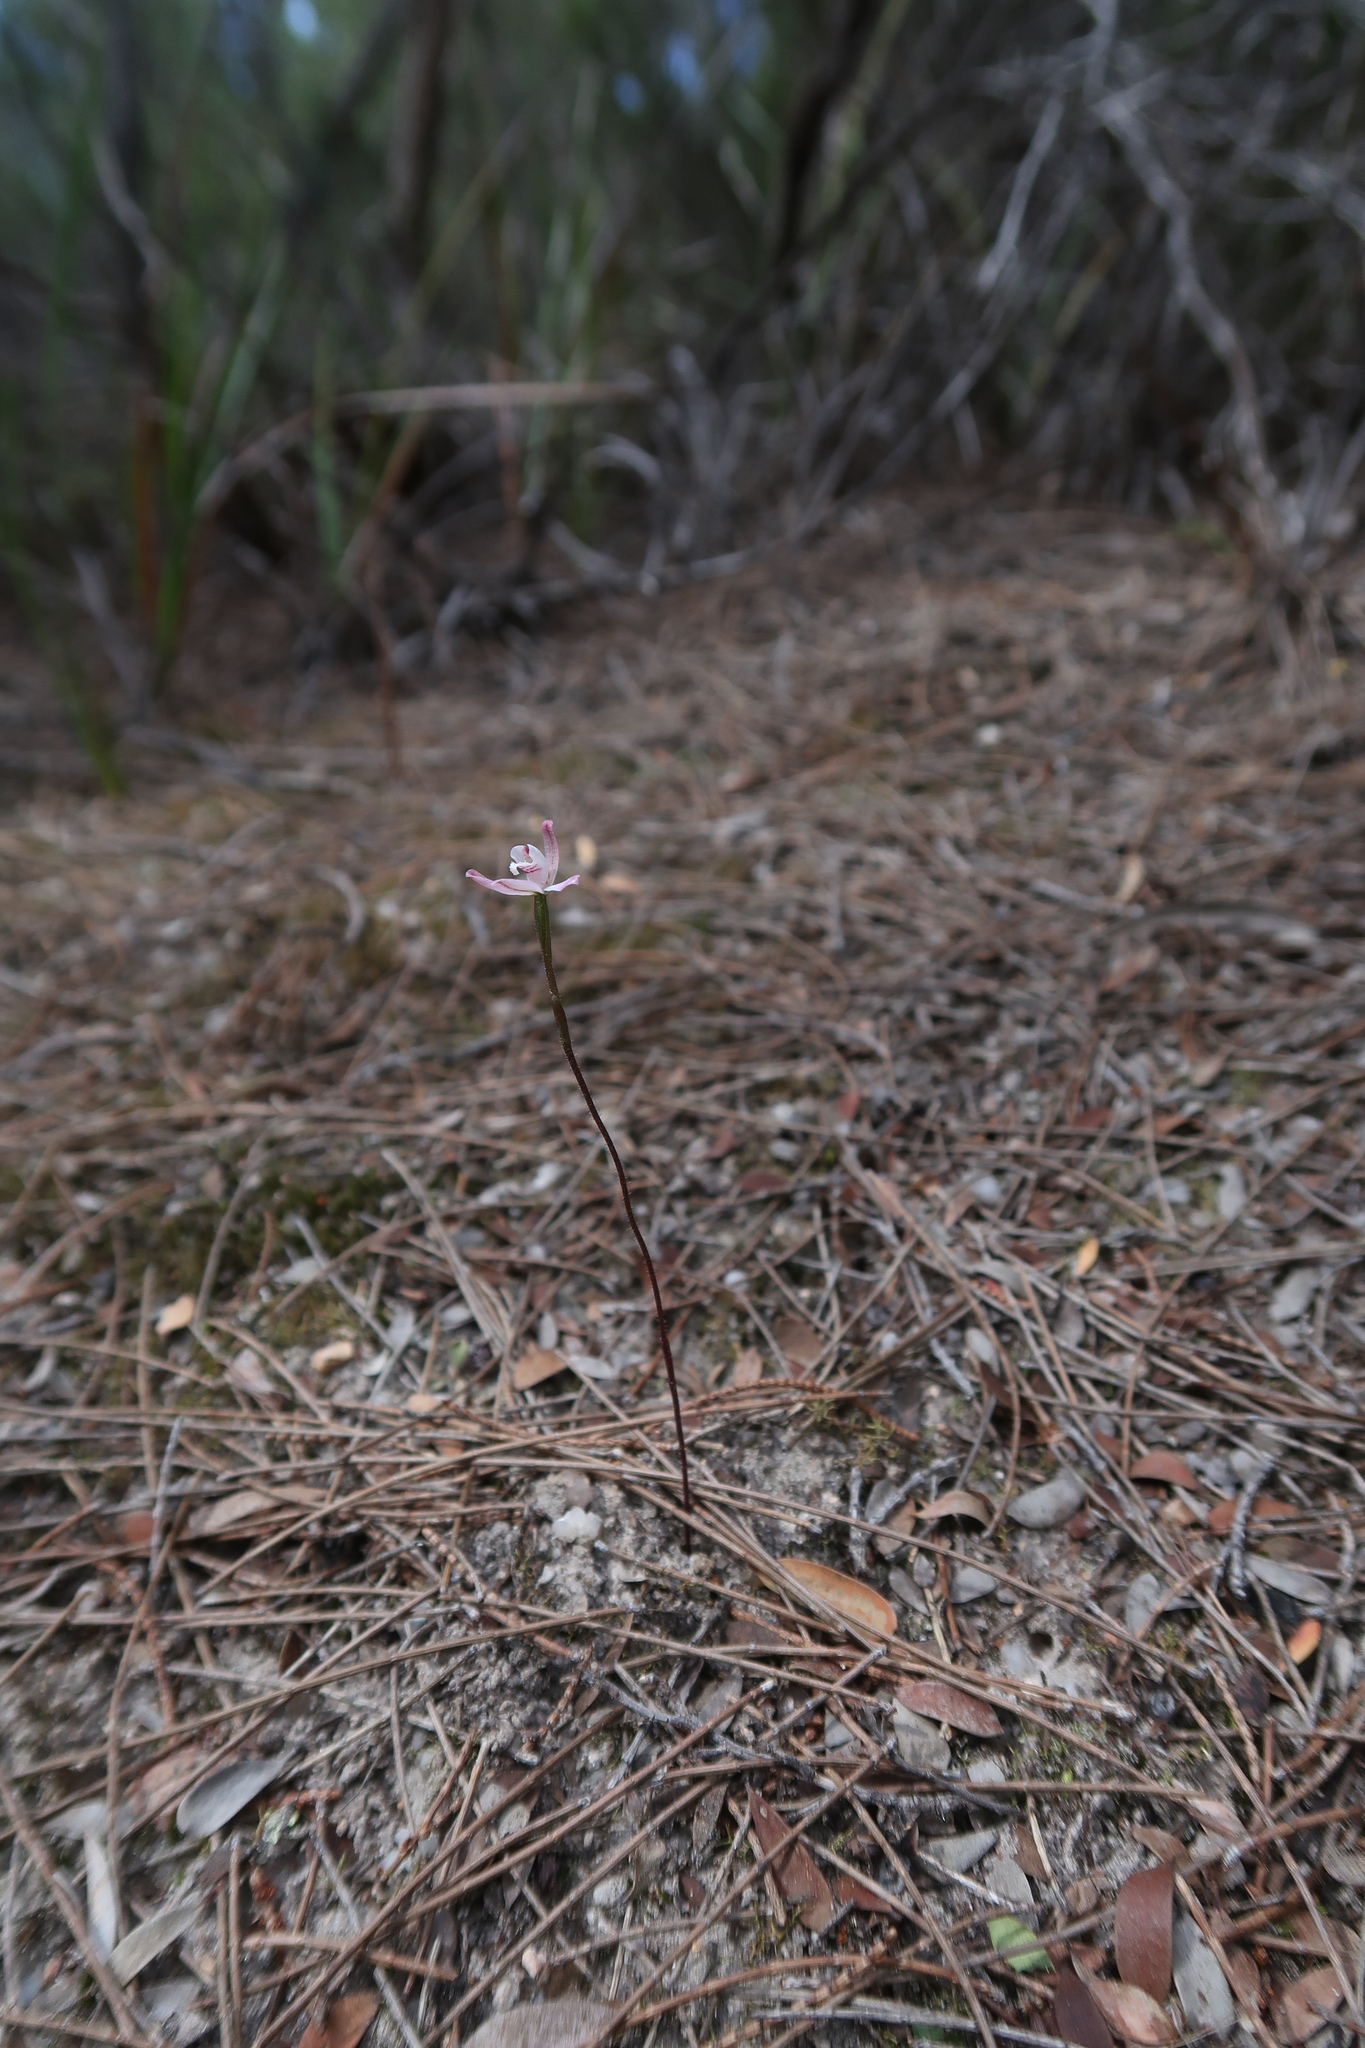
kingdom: Plantae
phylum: Tracheophyta
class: Liliopsida
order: Asparagales
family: Orchidaceae
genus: Caladenia
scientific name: Caladenia fuscata
